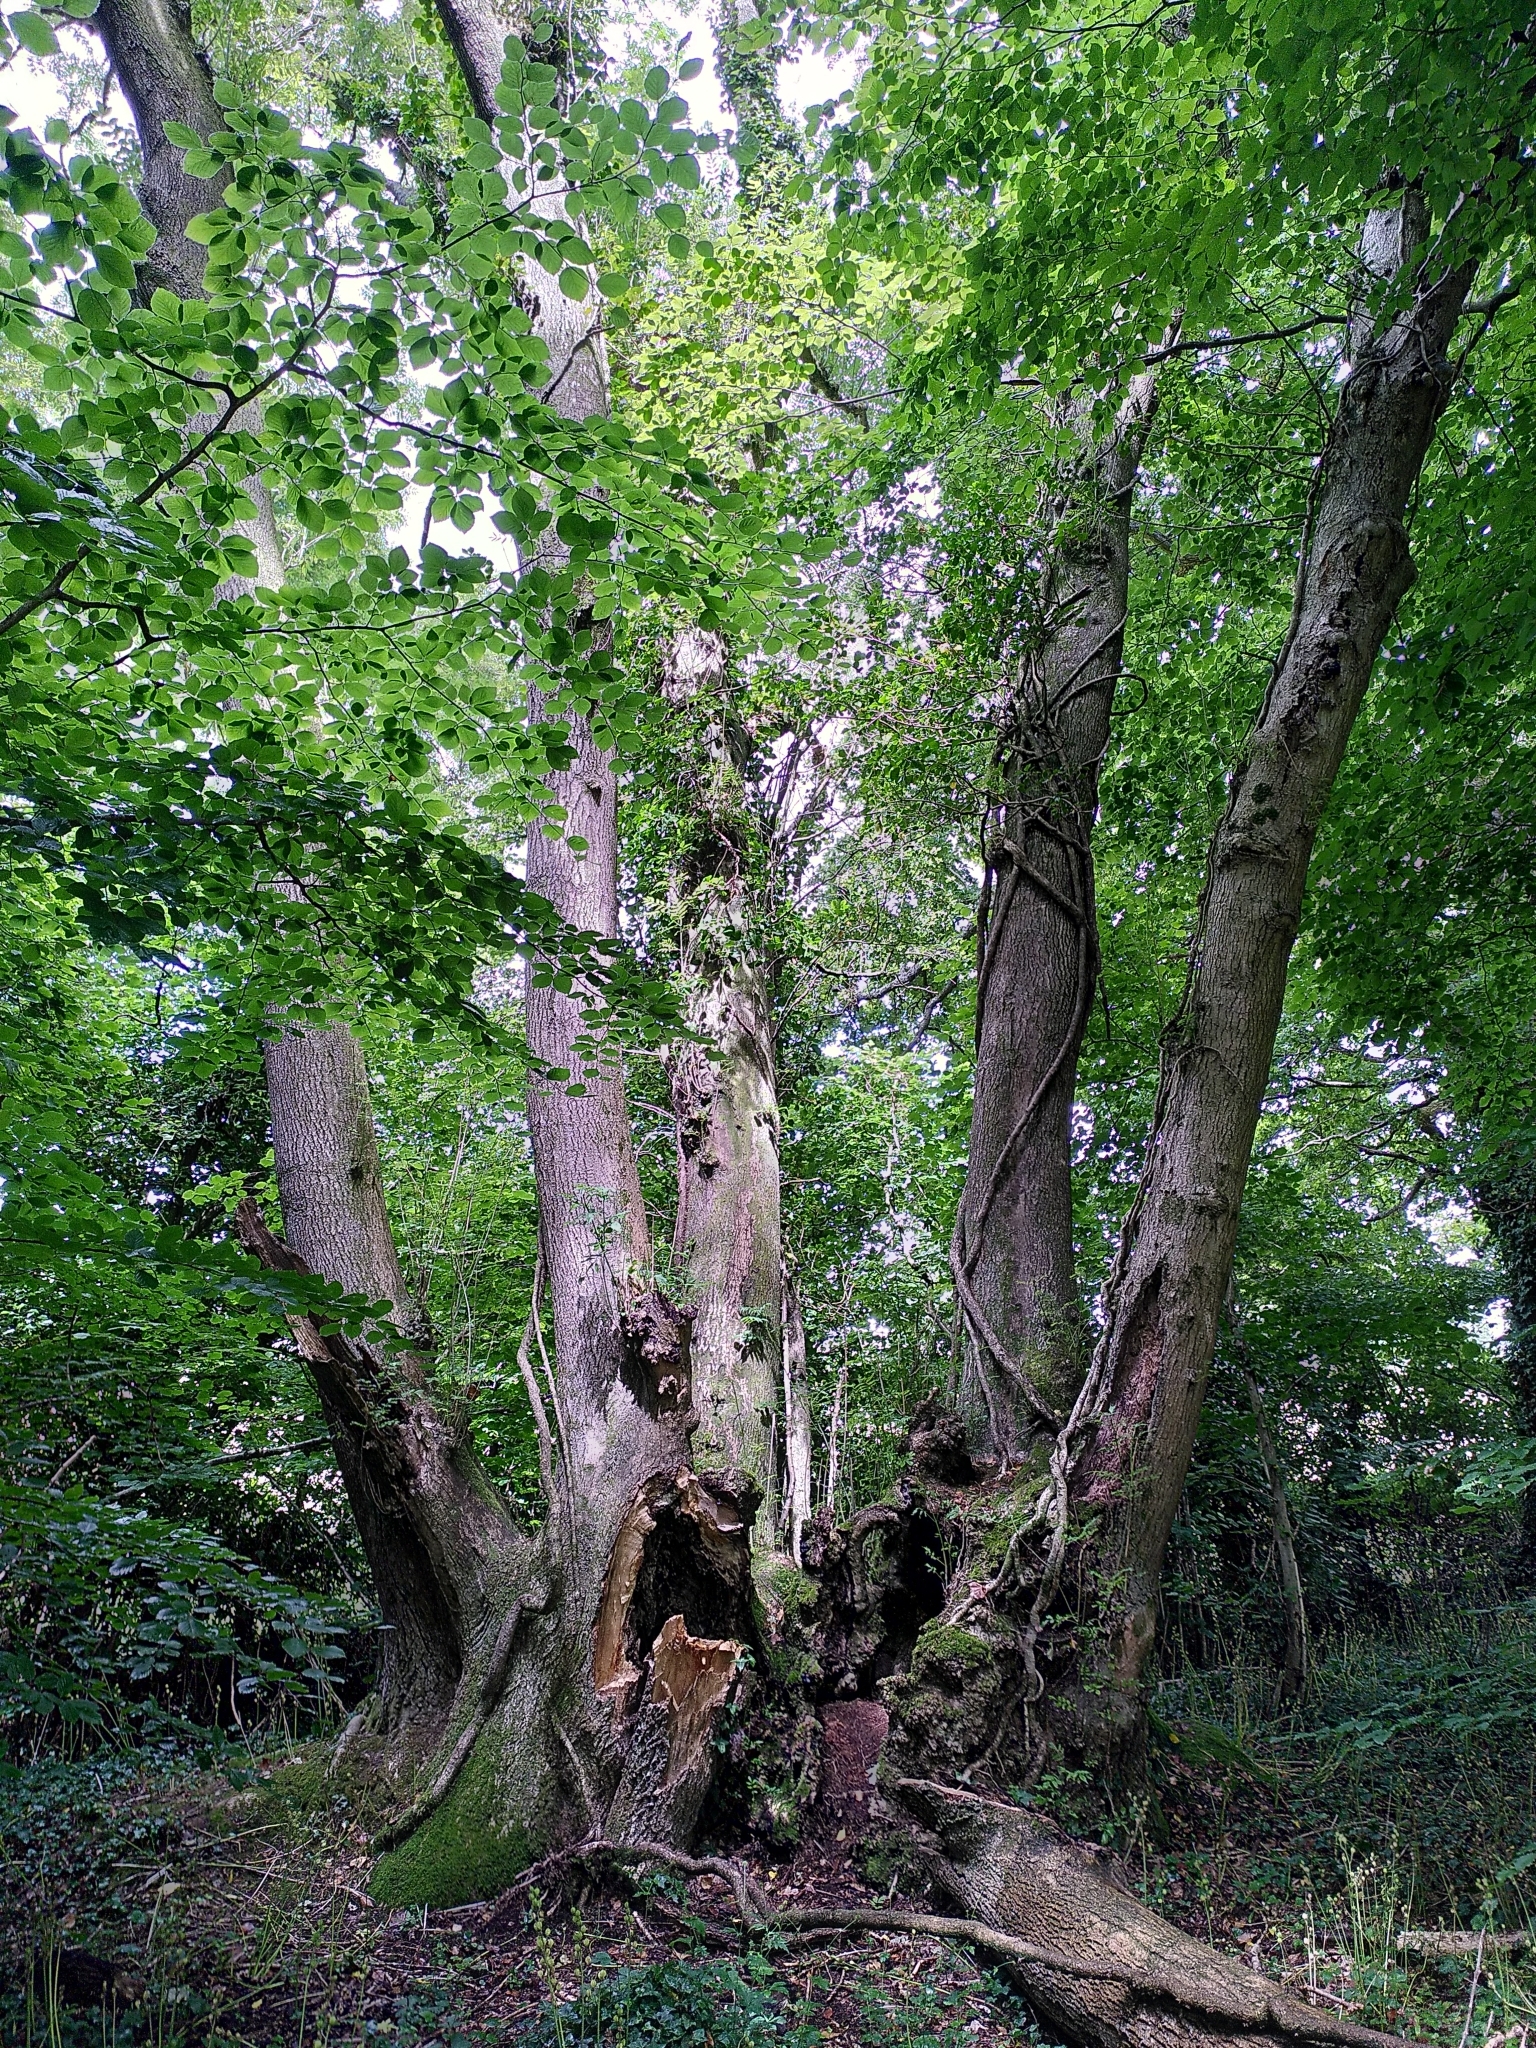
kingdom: Plantae
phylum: Tracheophyta
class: Magnoliopsida
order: Lamiales
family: Oleaceae
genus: Fraxinus
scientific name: Fraxinus excelsior
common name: European ash
